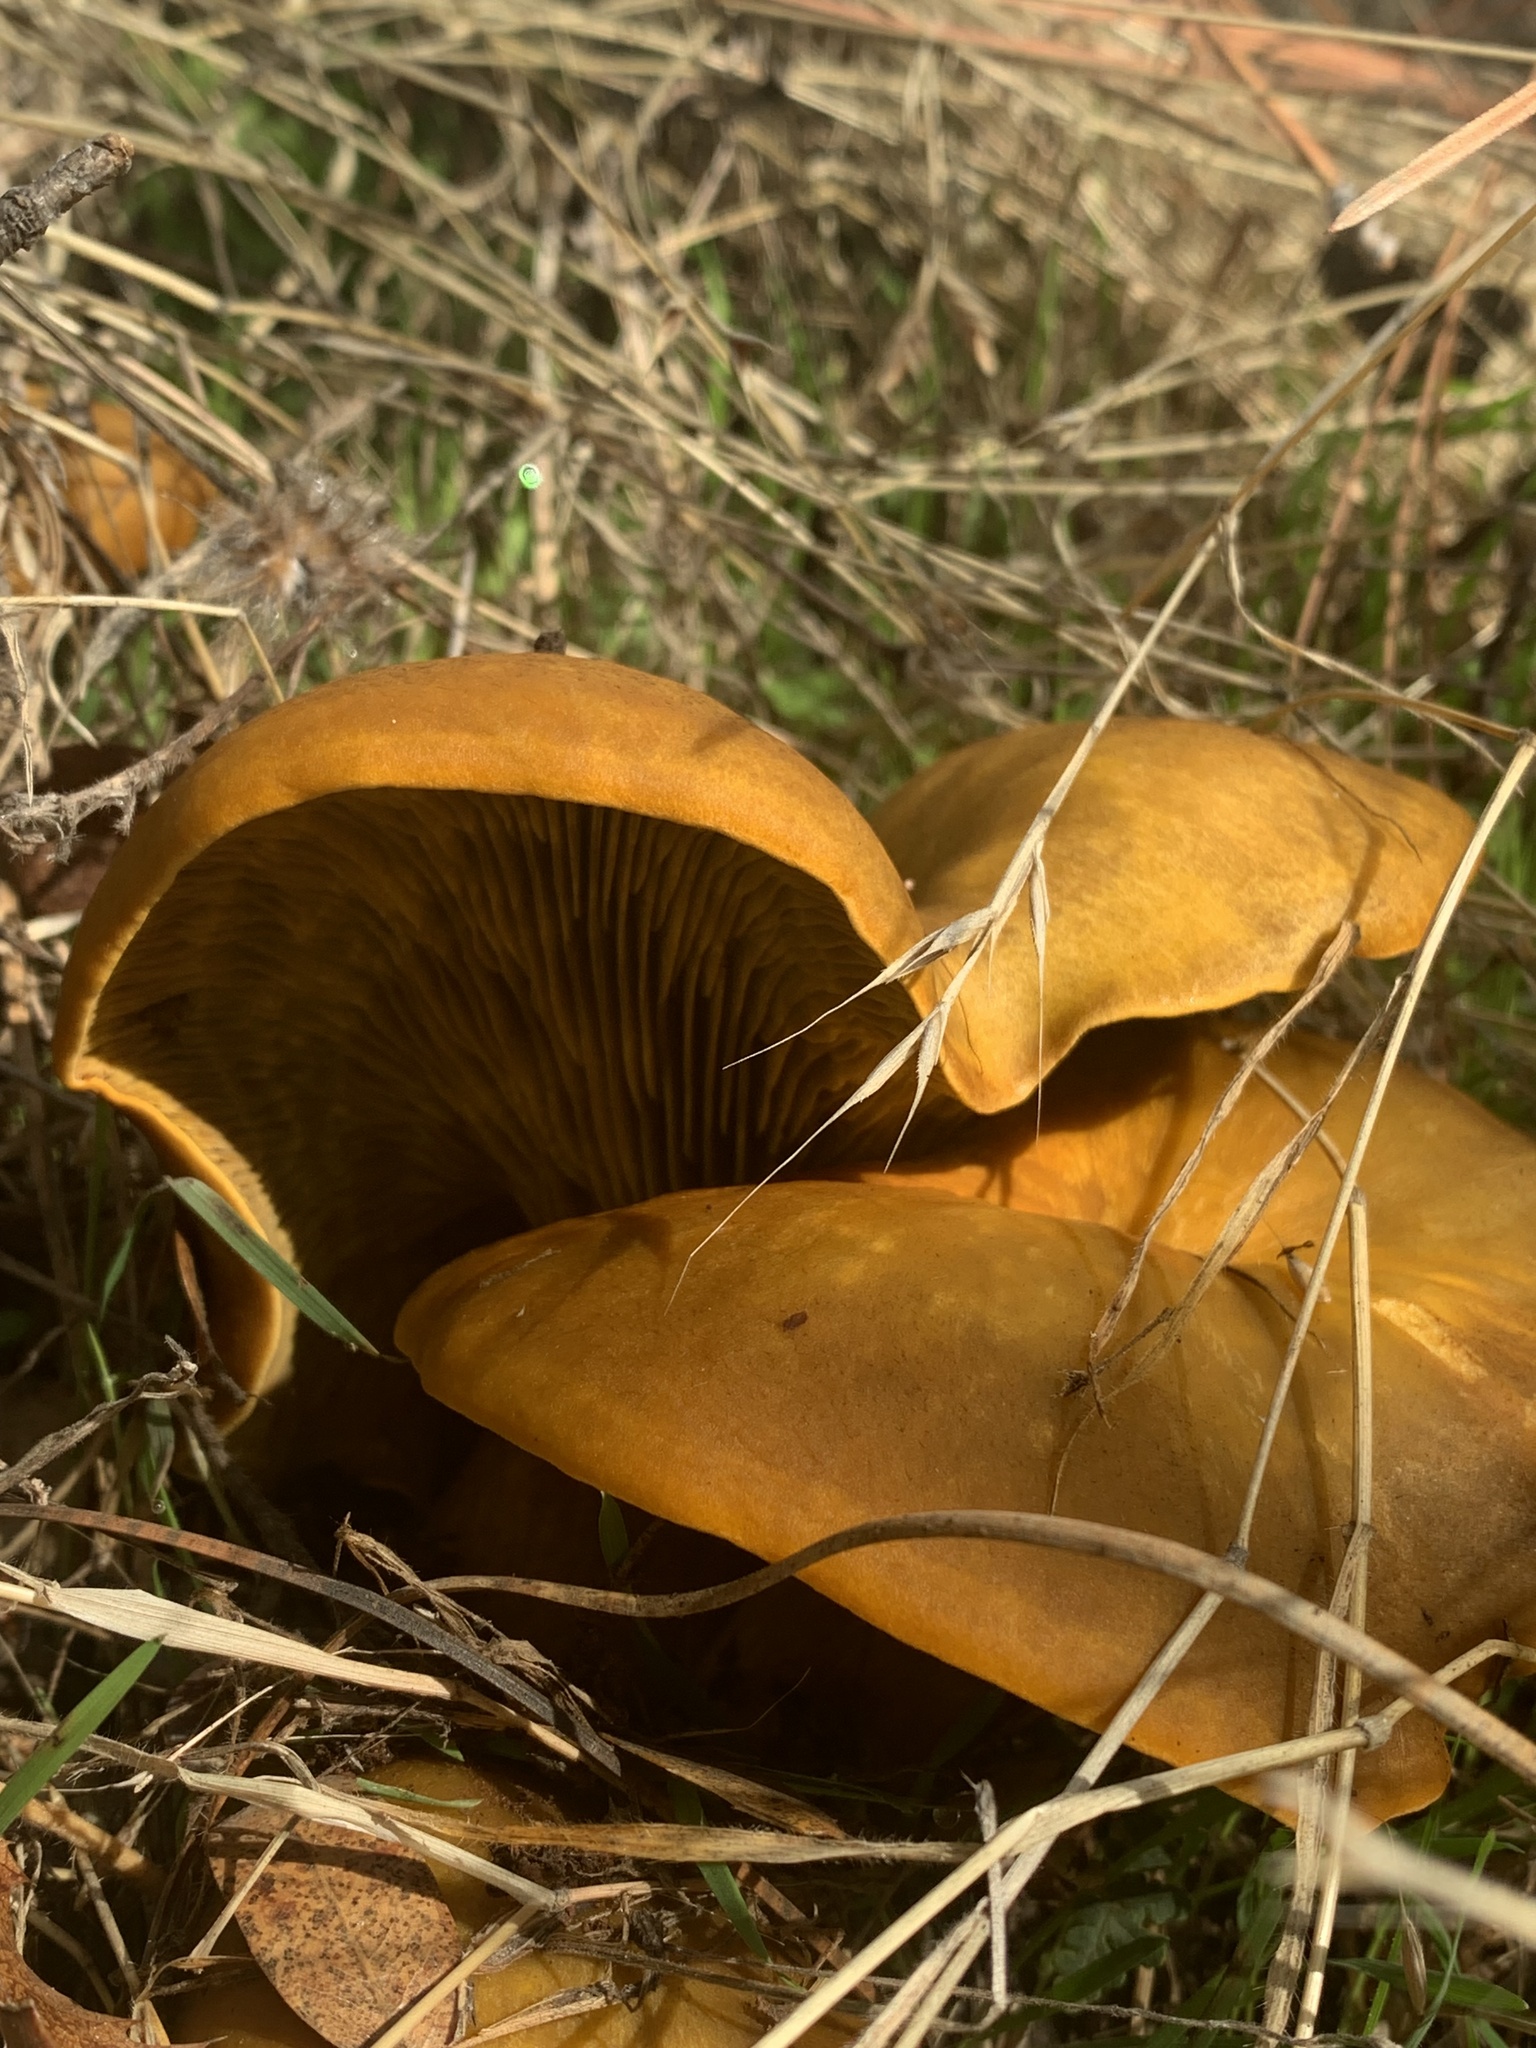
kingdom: Fungi
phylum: Basidiomycota
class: Agaricomycetes
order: Agaricales
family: Omphalotaceae
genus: Omphalotus
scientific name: Omphalotus olivascens
